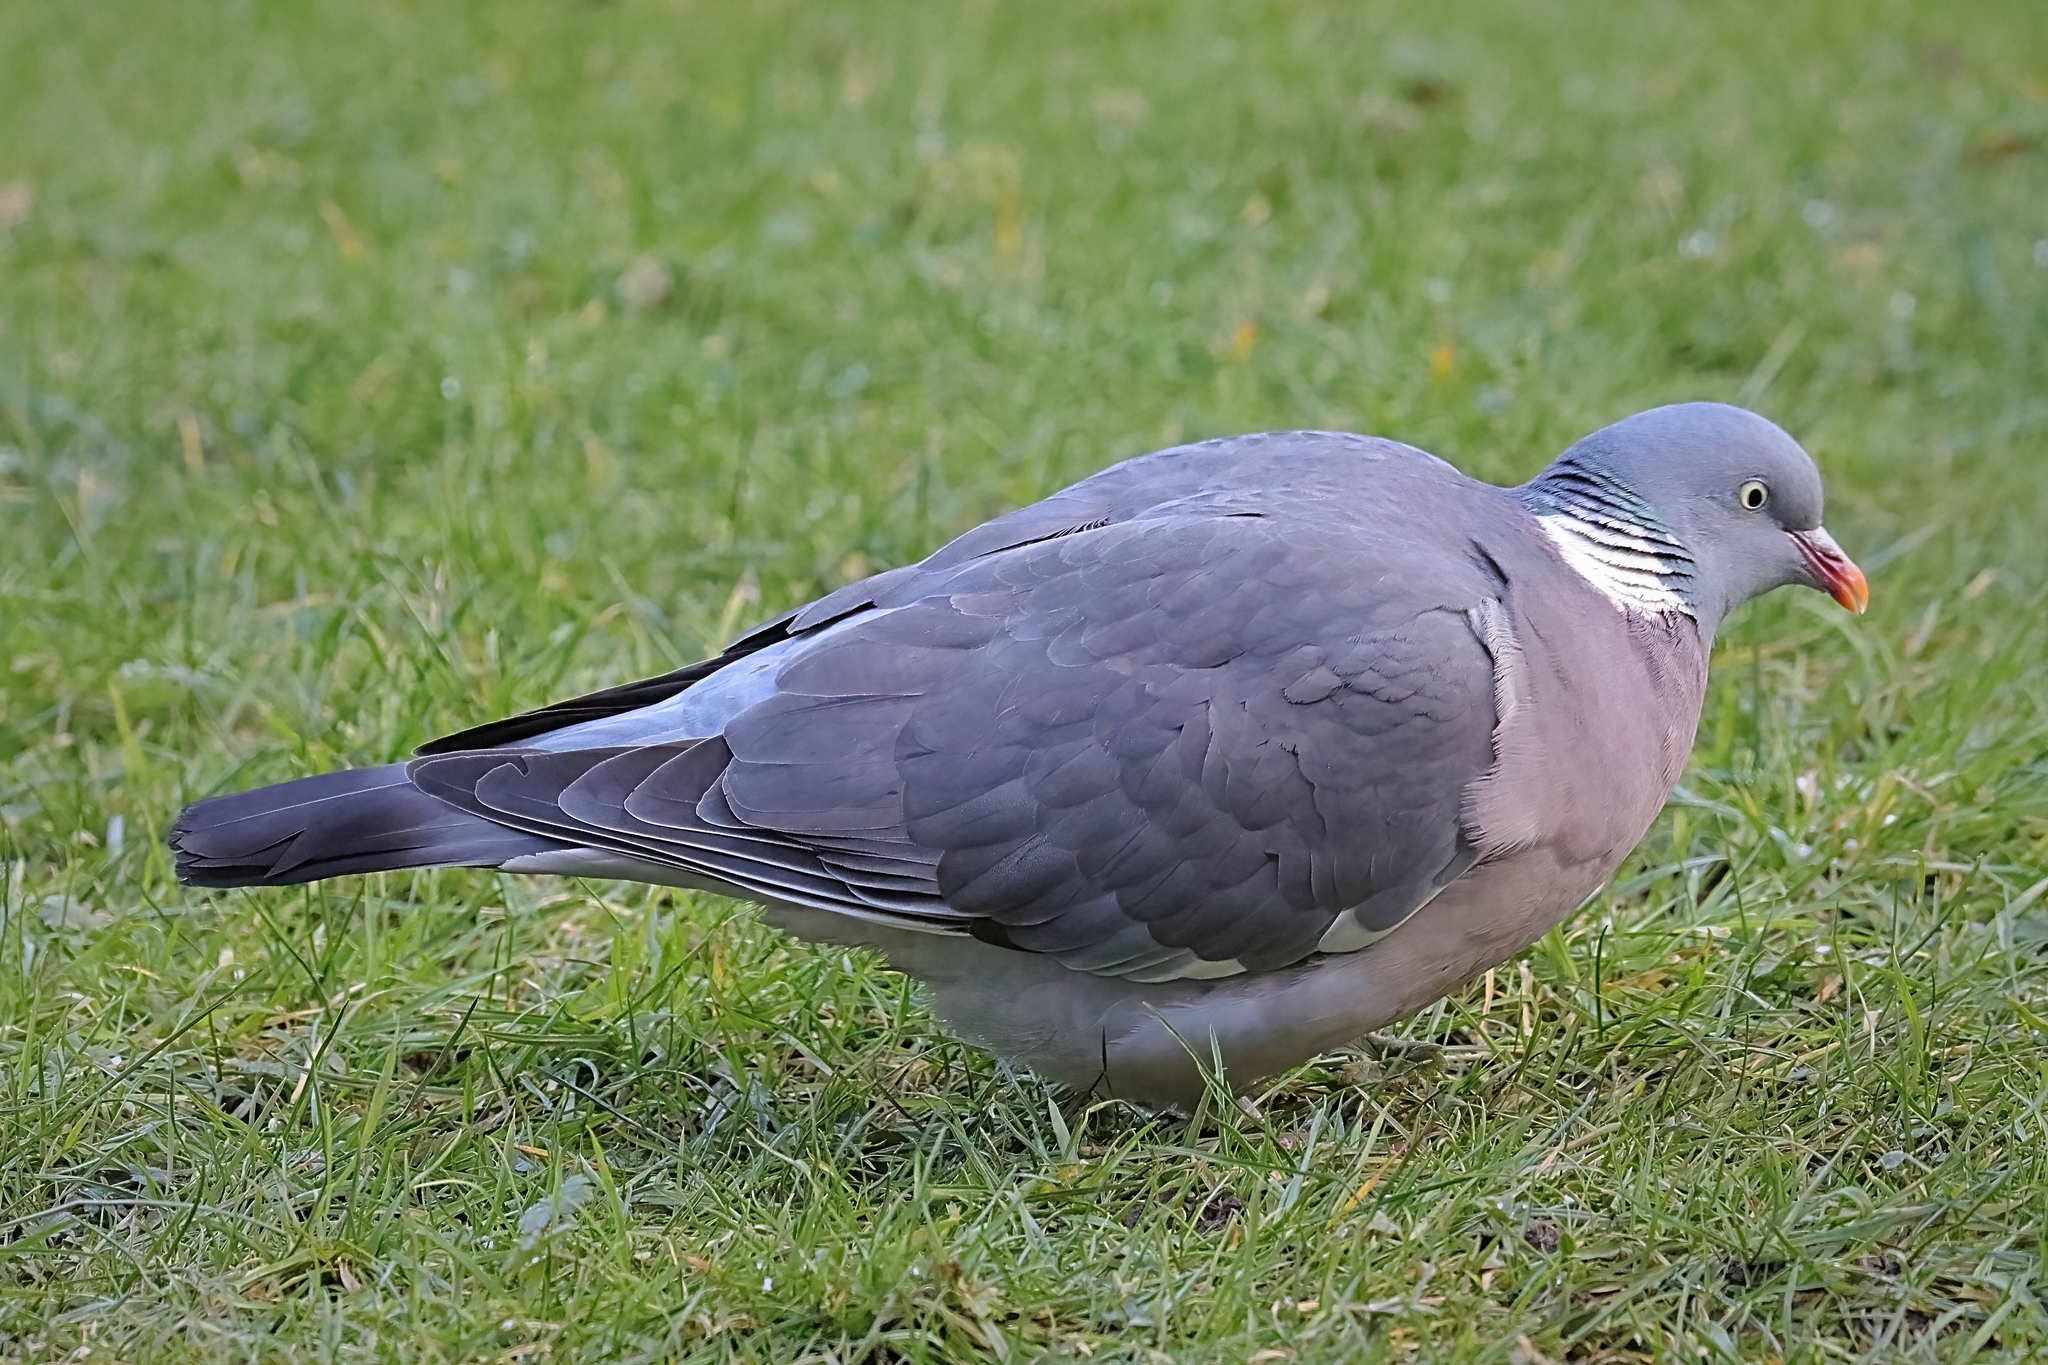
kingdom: Animalia
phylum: Chordata
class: Aves
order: Columbiformes
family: Columbidae
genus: Columba
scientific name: Columba palumbus
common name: Common wood pigeon
